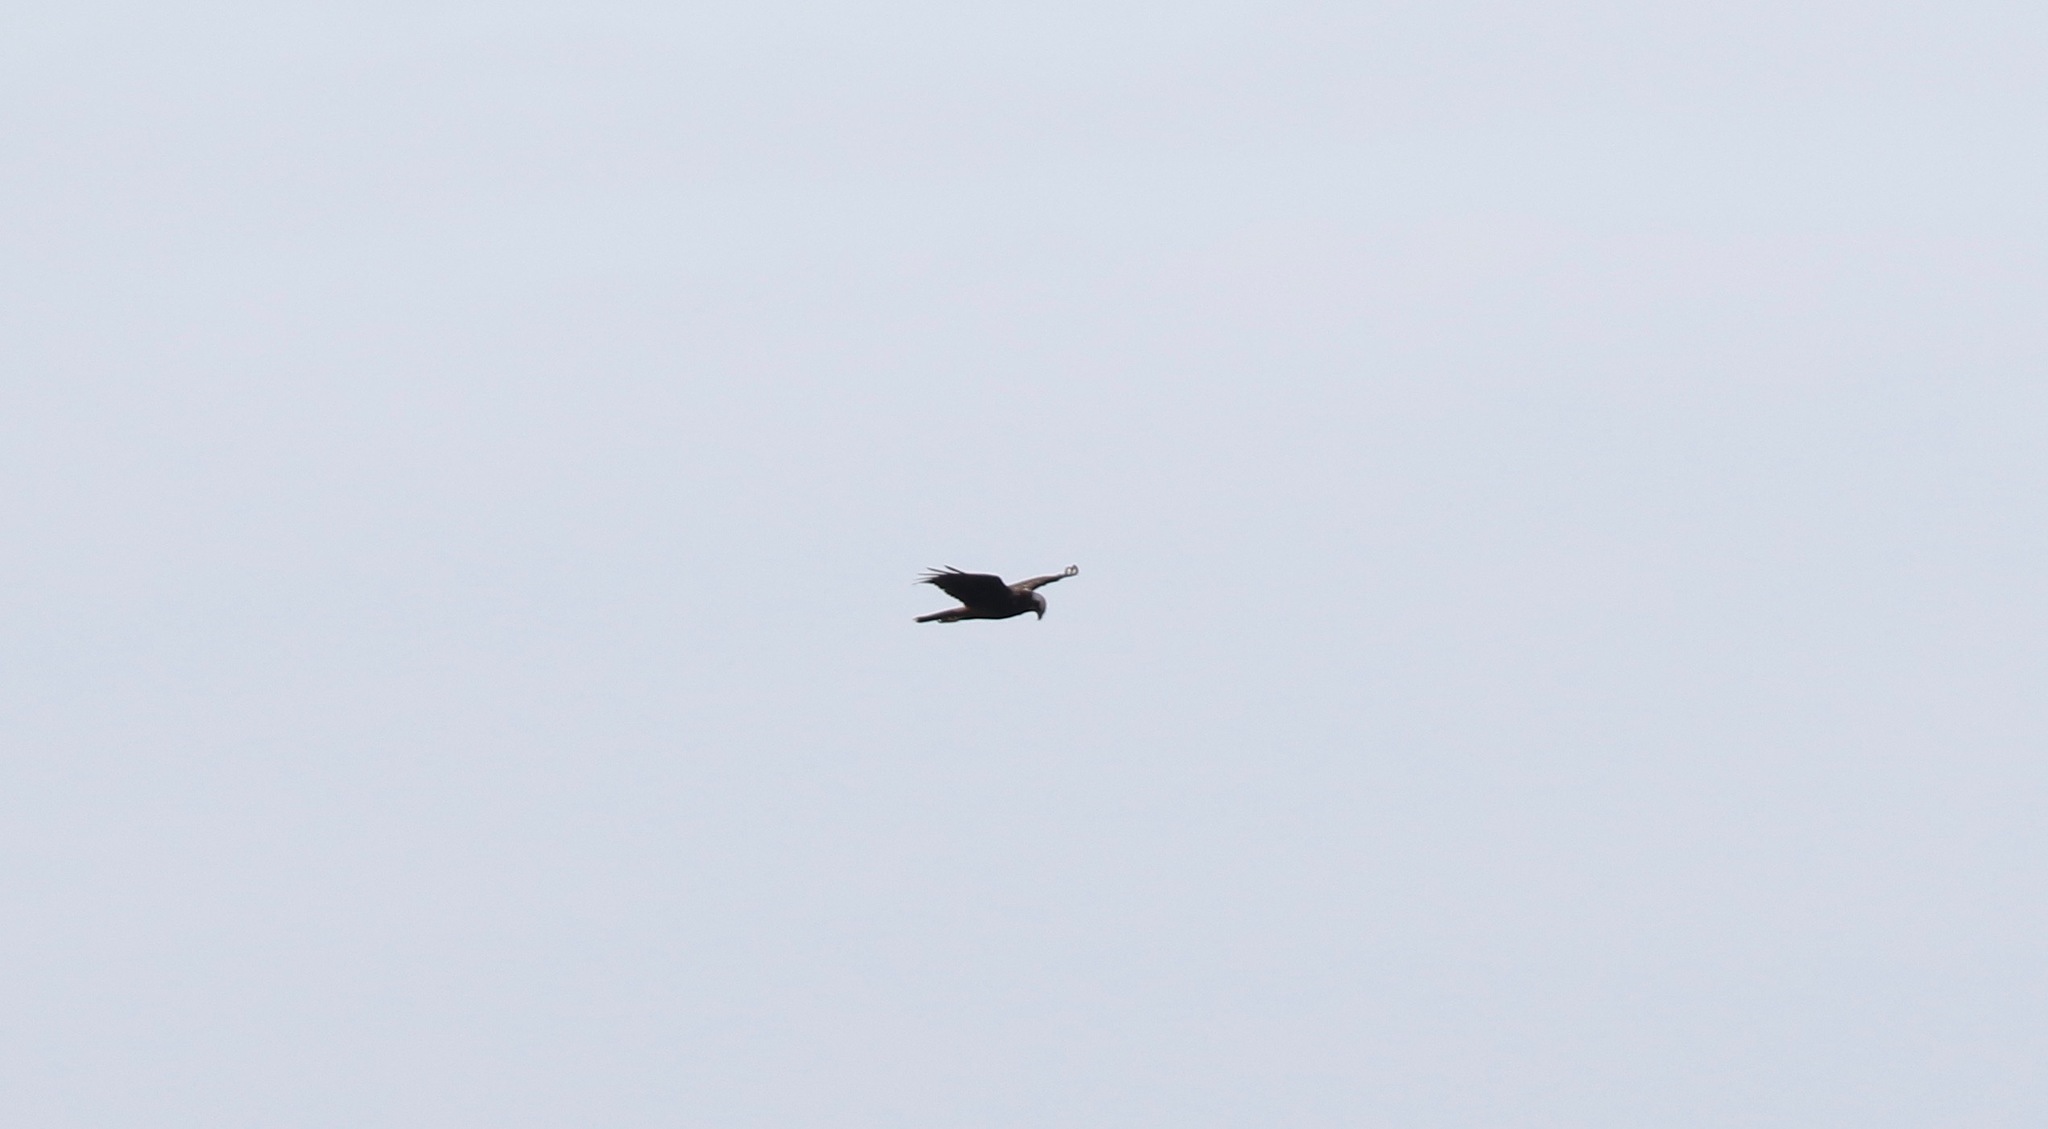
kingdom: Animalia
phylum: Chordata
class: Aves
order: Accipitriformes
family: Accipitridae
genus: Circus
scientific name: Circus aeruginosus
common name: Western marsh harrier
